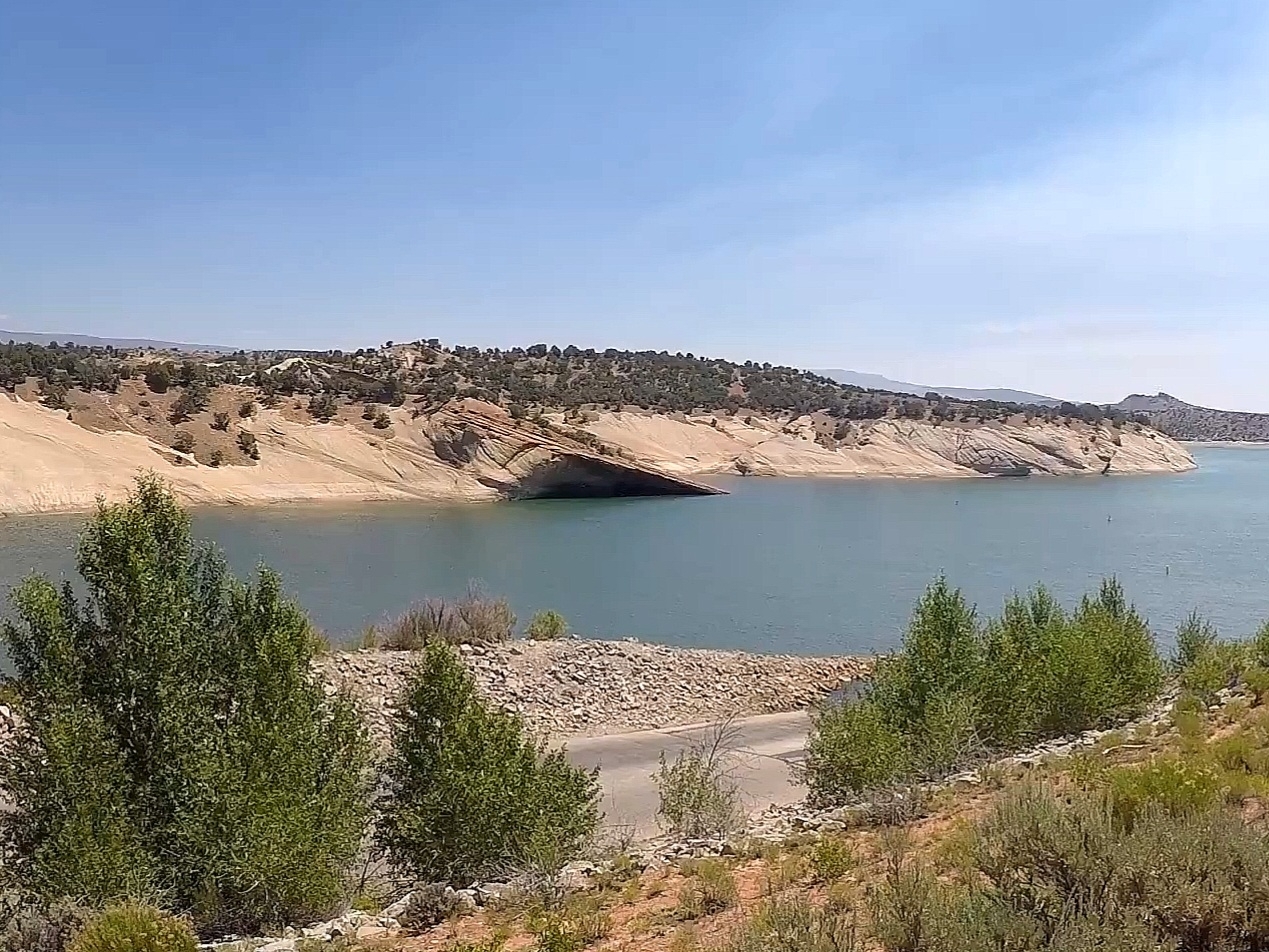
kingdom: Plantae
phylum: Tracheophyta
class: Pinopsida
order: Pinales
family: Cupressaceae
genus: Juniperus
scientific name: Juniperus osteosperma
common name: Utah juniper
